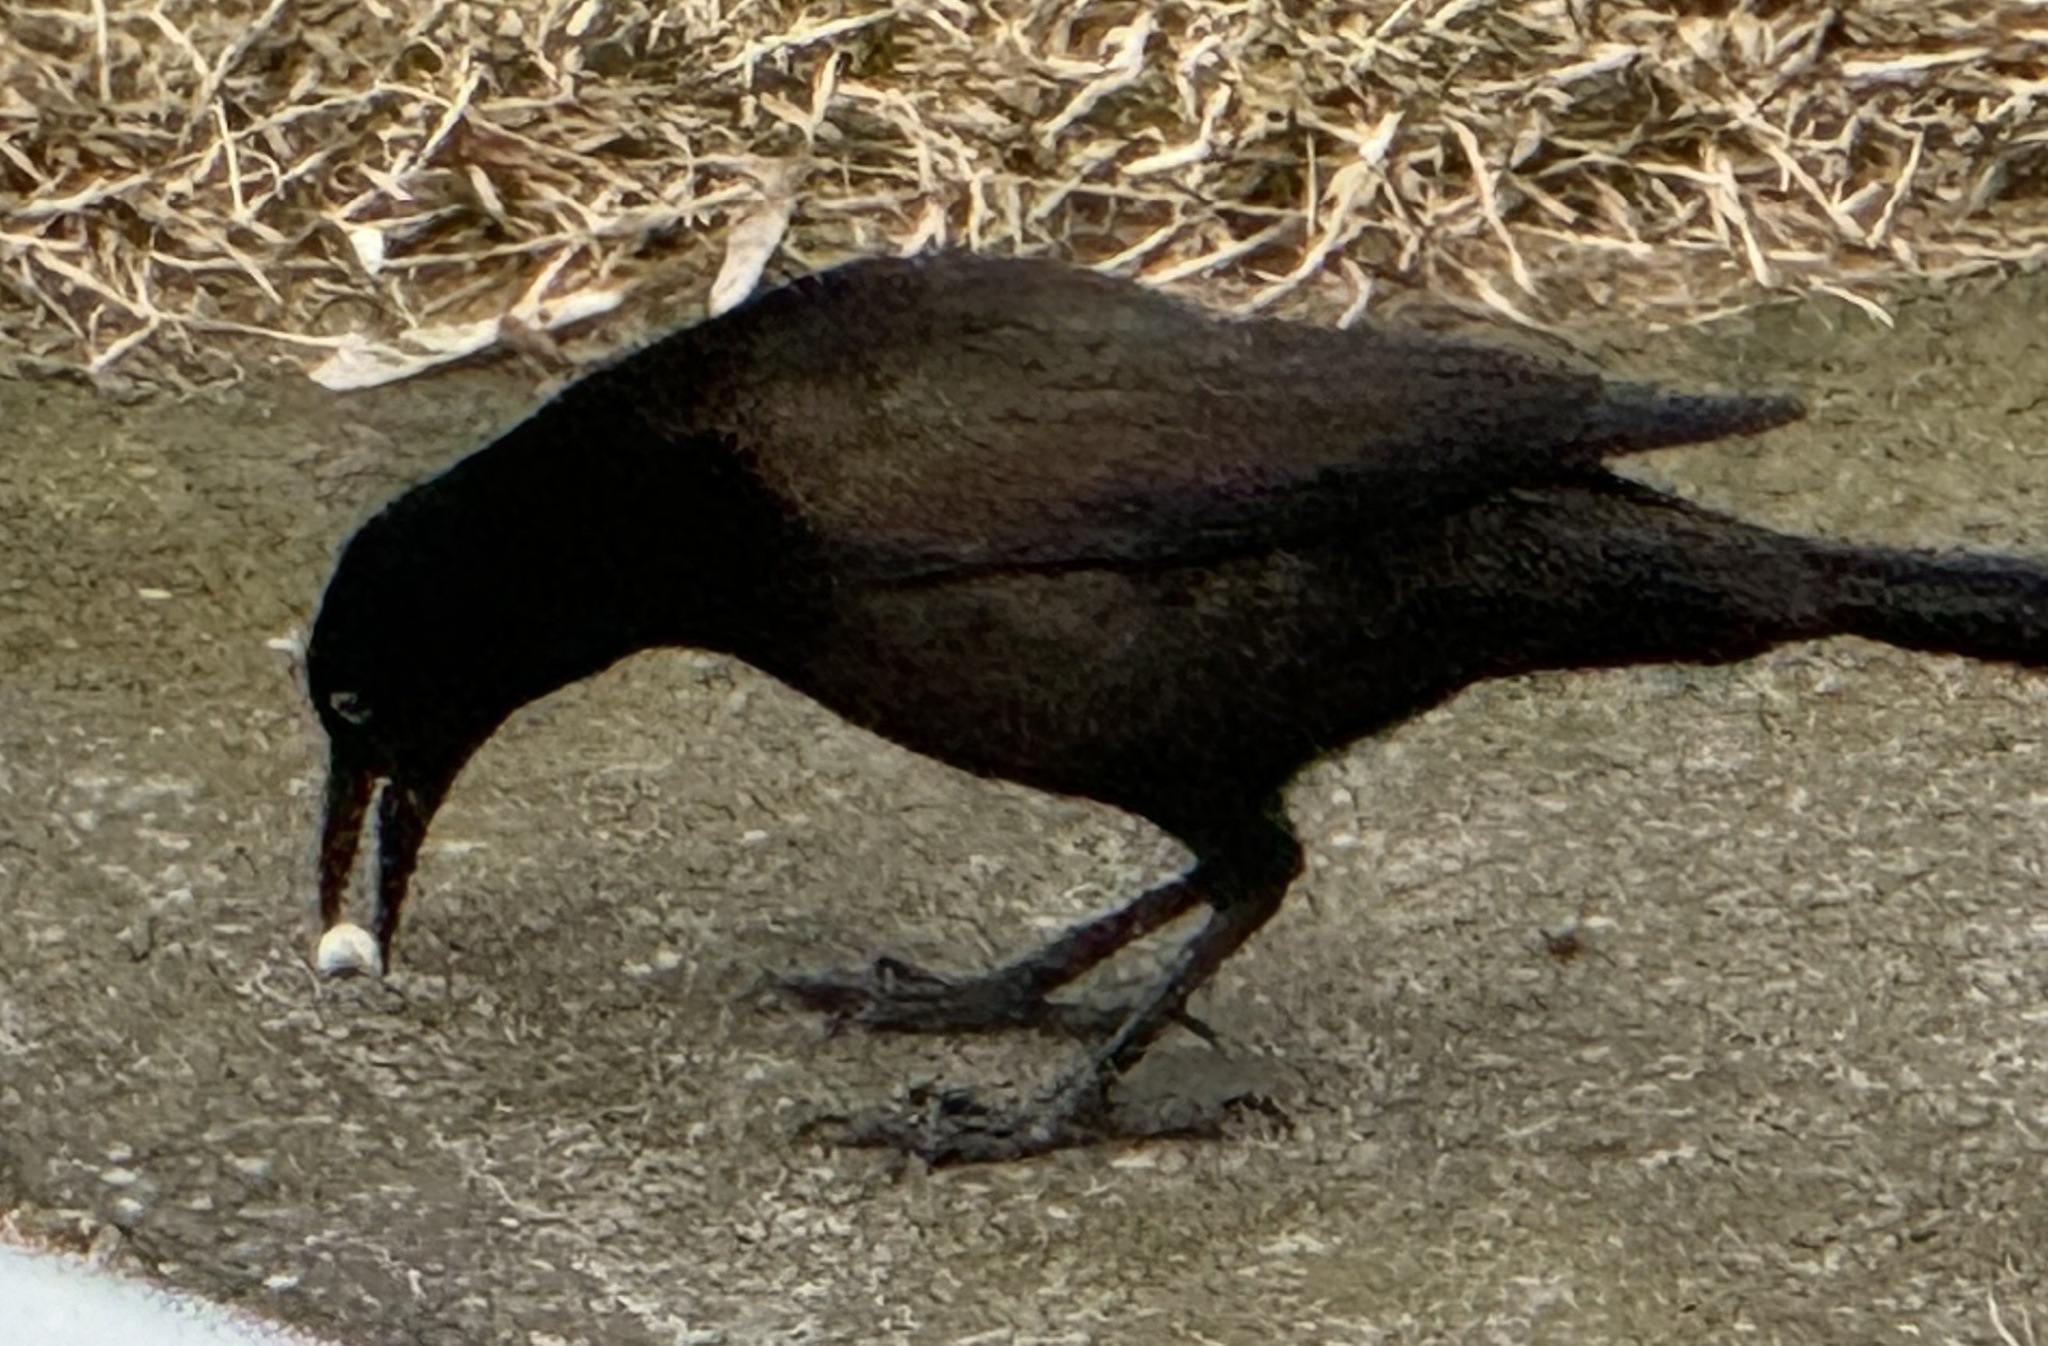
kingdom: Animalia
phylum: Chordata
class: Aves
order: Passeriformes
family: Icteridae
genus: Quiscalus
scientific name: Quiscalus quiscula
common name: Common grackle
